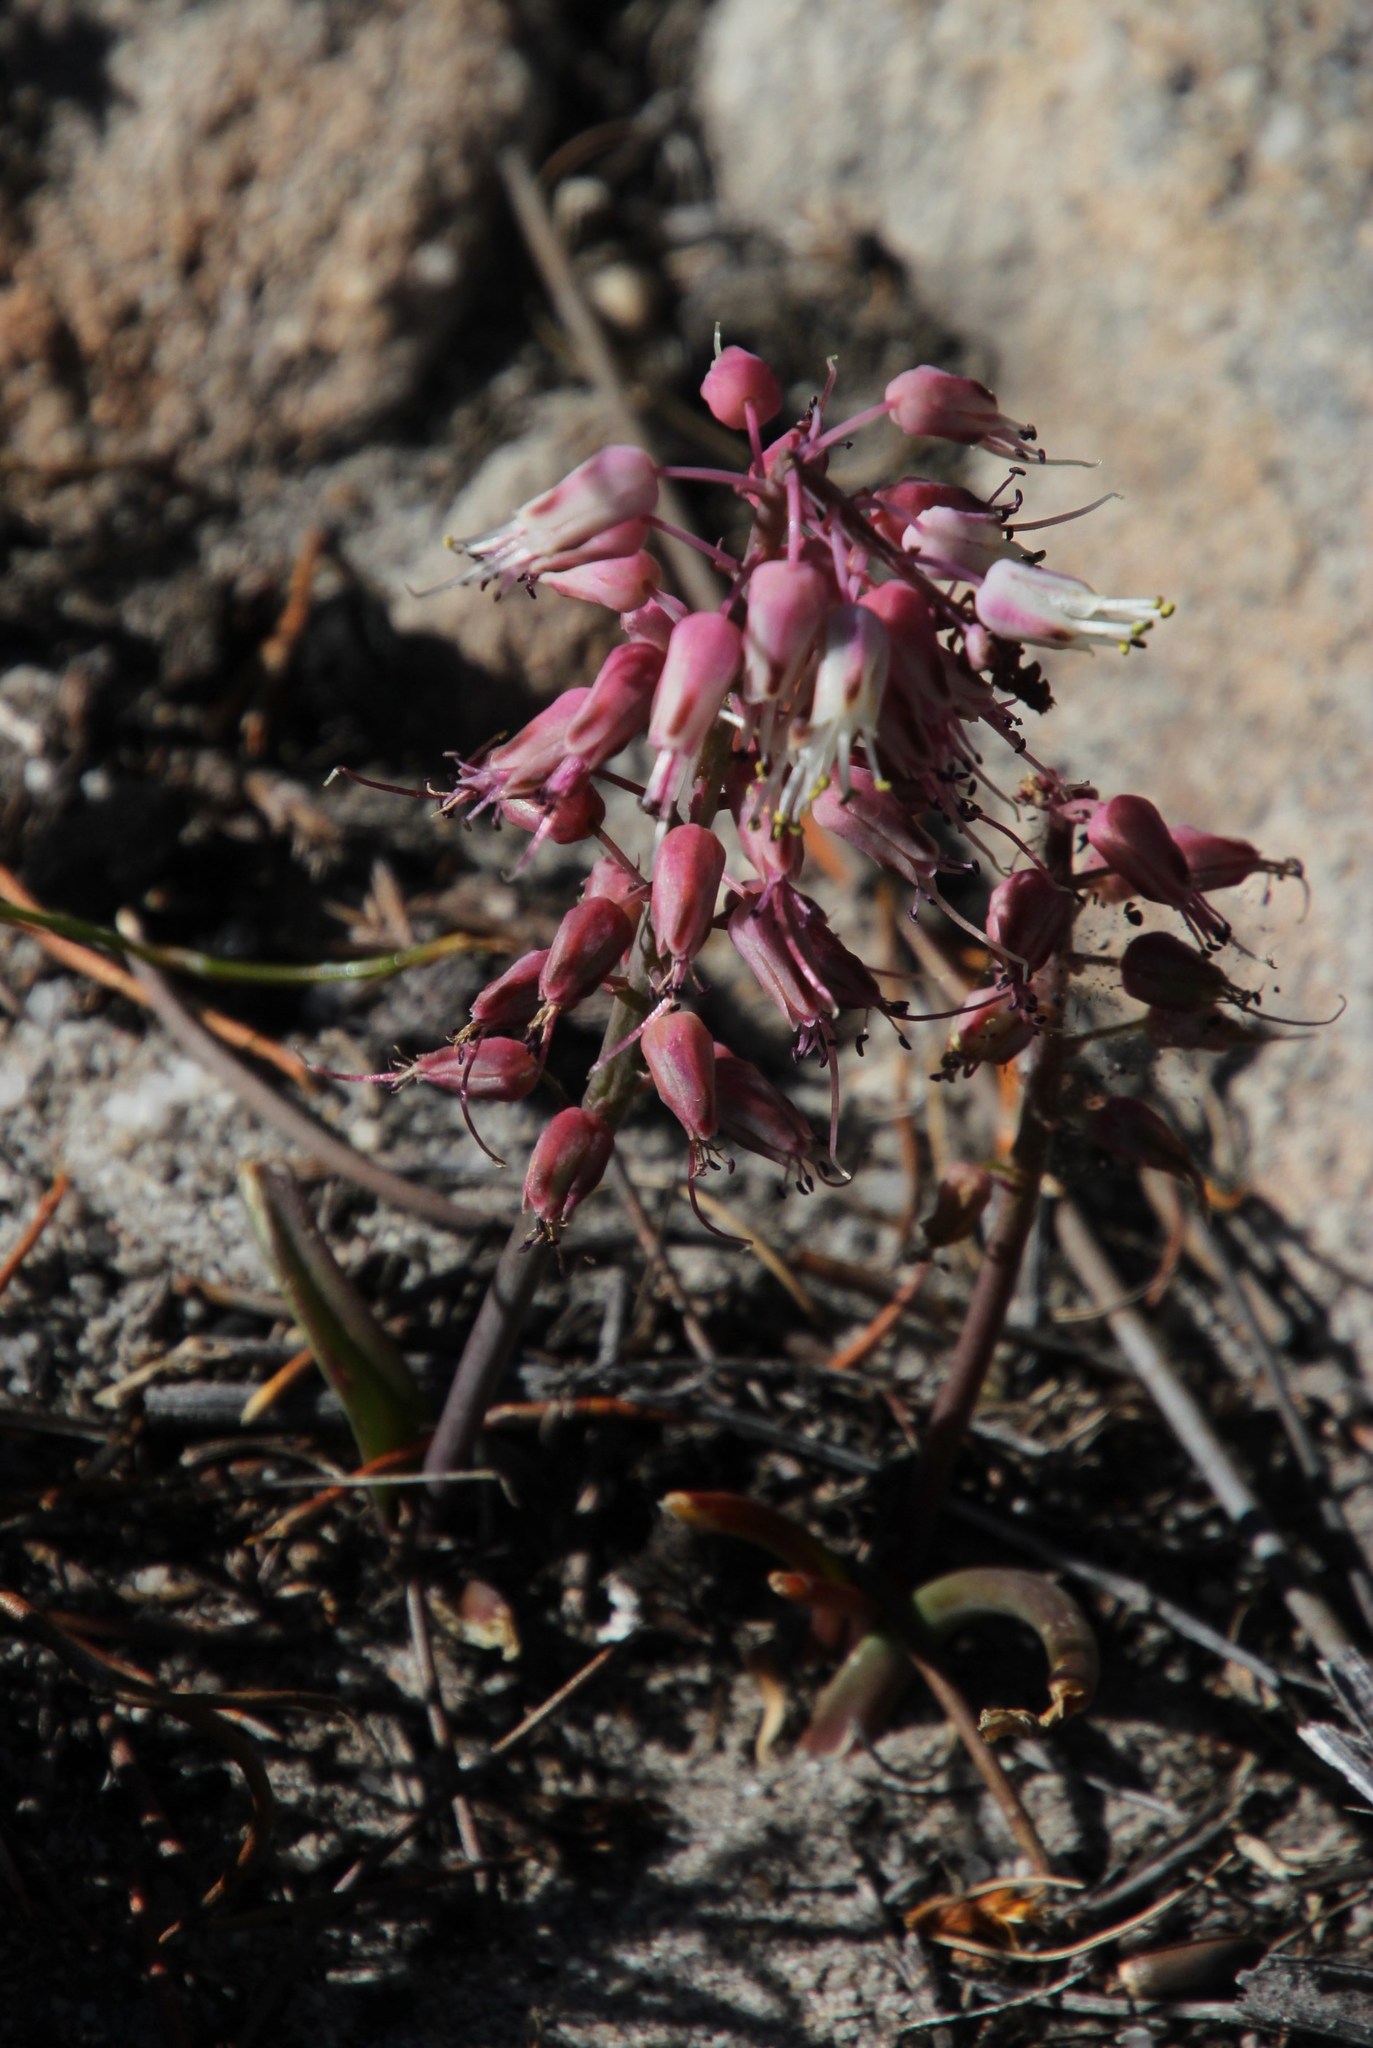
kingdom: Plantae
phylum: Tracheophyta
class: Liliopsida
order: Asparagales
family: Asparagaceae
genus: Lachenalia
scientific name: Lachenalia juncifolia
